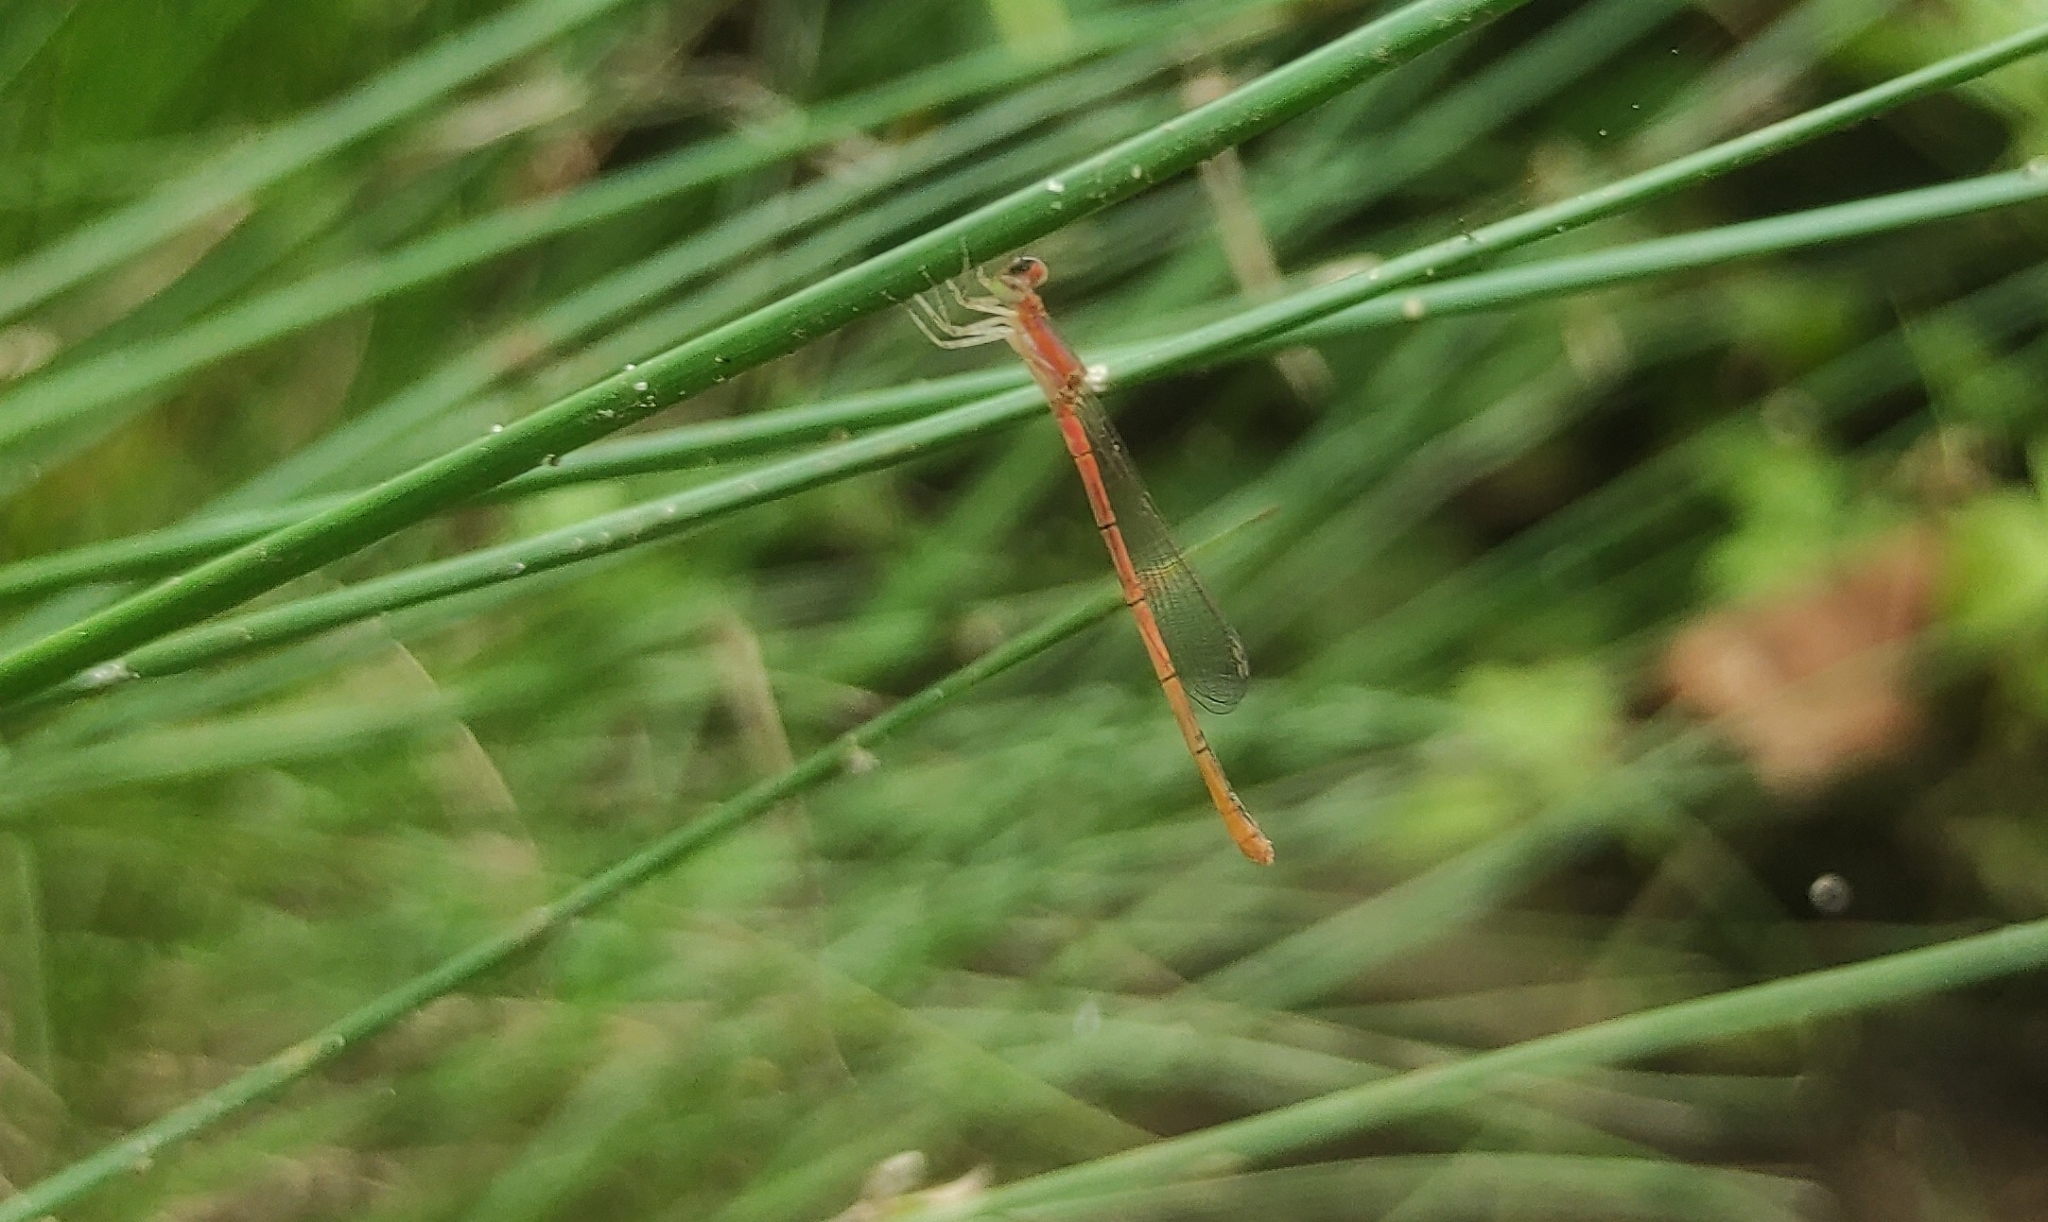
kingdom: Animalia
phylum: Arthropoda
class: Insecta
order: Odonata
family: Coenagrionidae
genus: Agriocnemis
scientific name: Agriocnemis pygmaea
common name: Pygmy wisp
